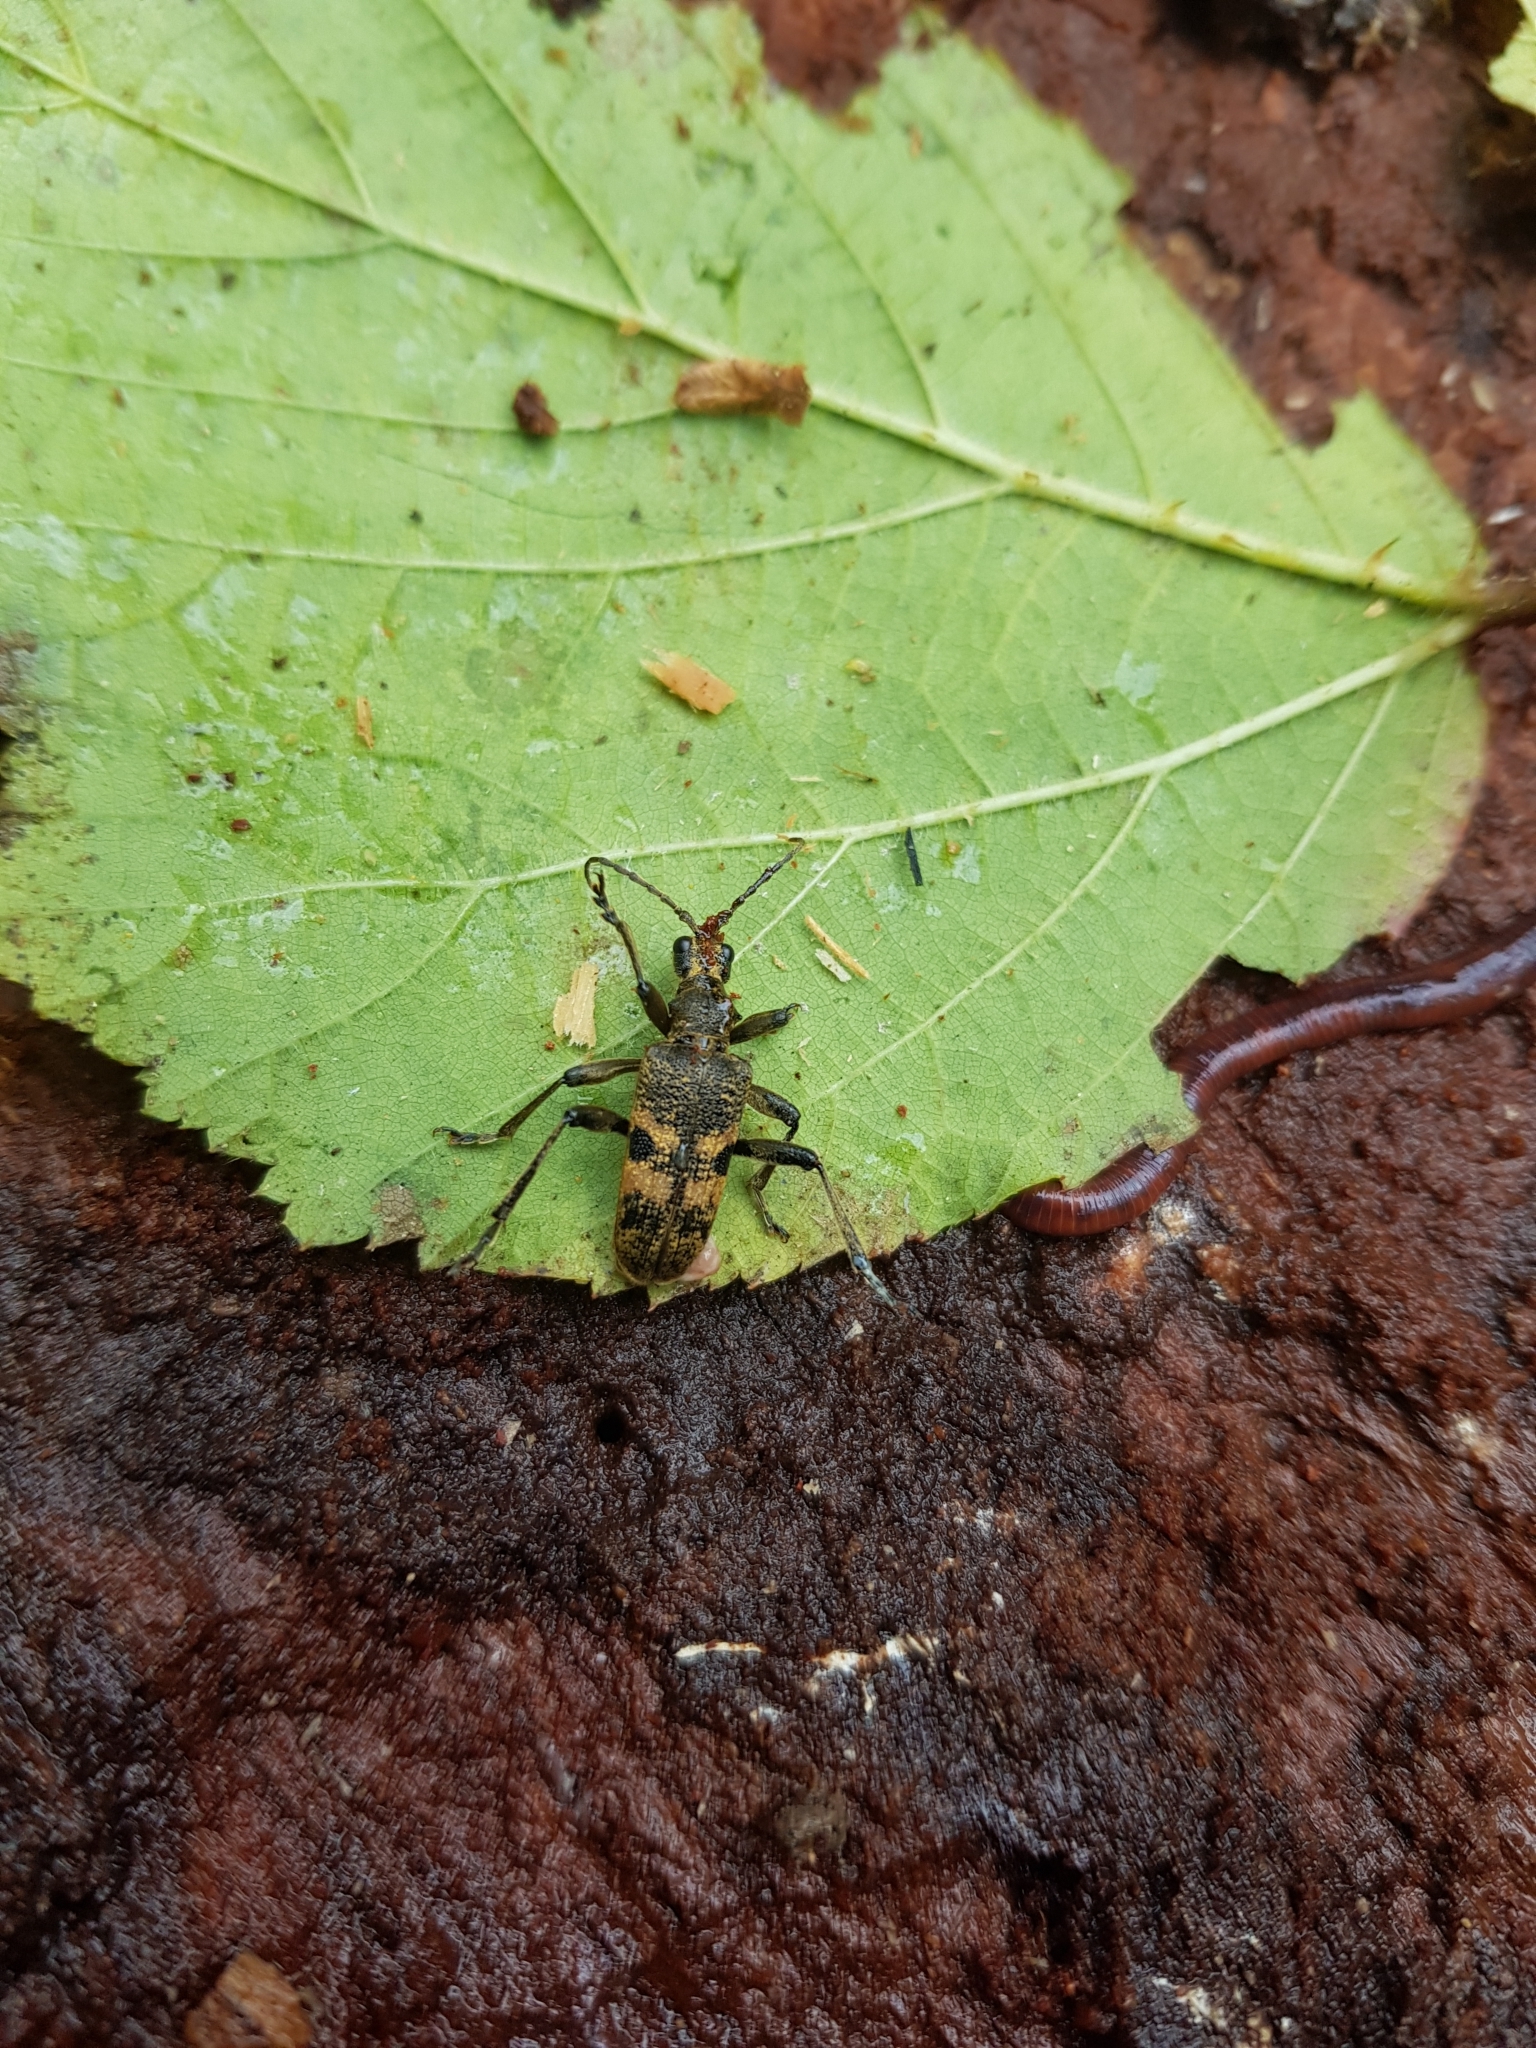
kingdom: Animalia
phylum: Arthropoda
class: Insecta
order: Coleoptera
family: Cerambycidae
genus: Rhagium
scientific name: Rhagium mordax
